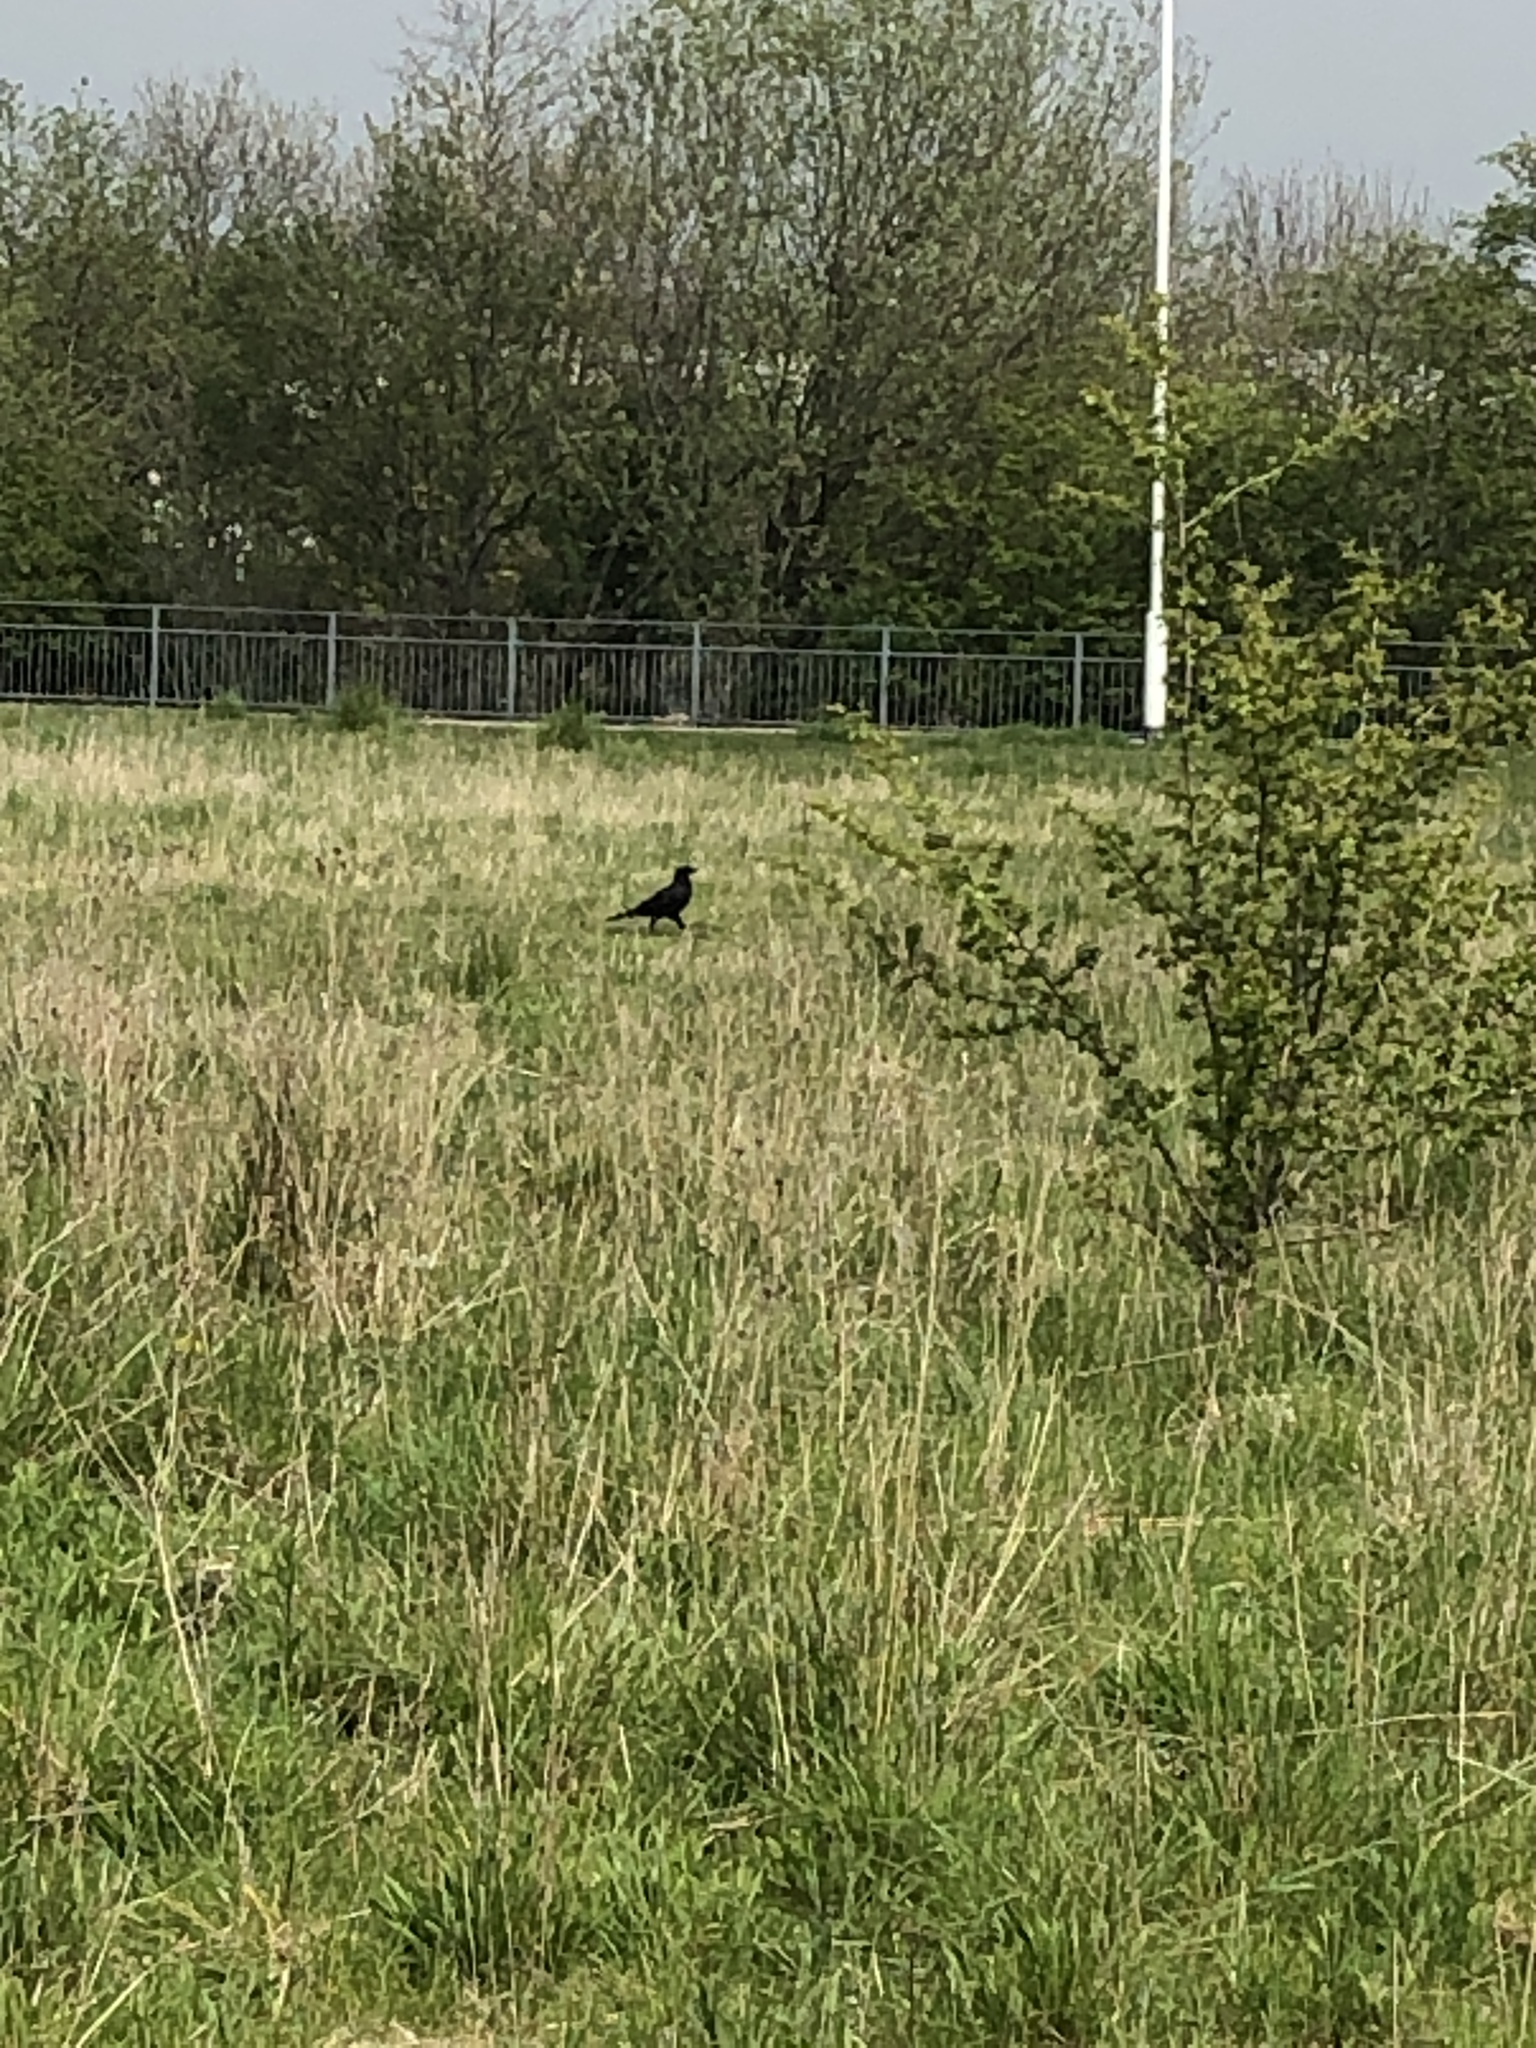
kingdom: Animalia
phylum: Chordata
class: Aves
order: Passeriformes
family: Corvidae
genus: Corvus
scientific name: Corvus corone
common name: Carrion crow
